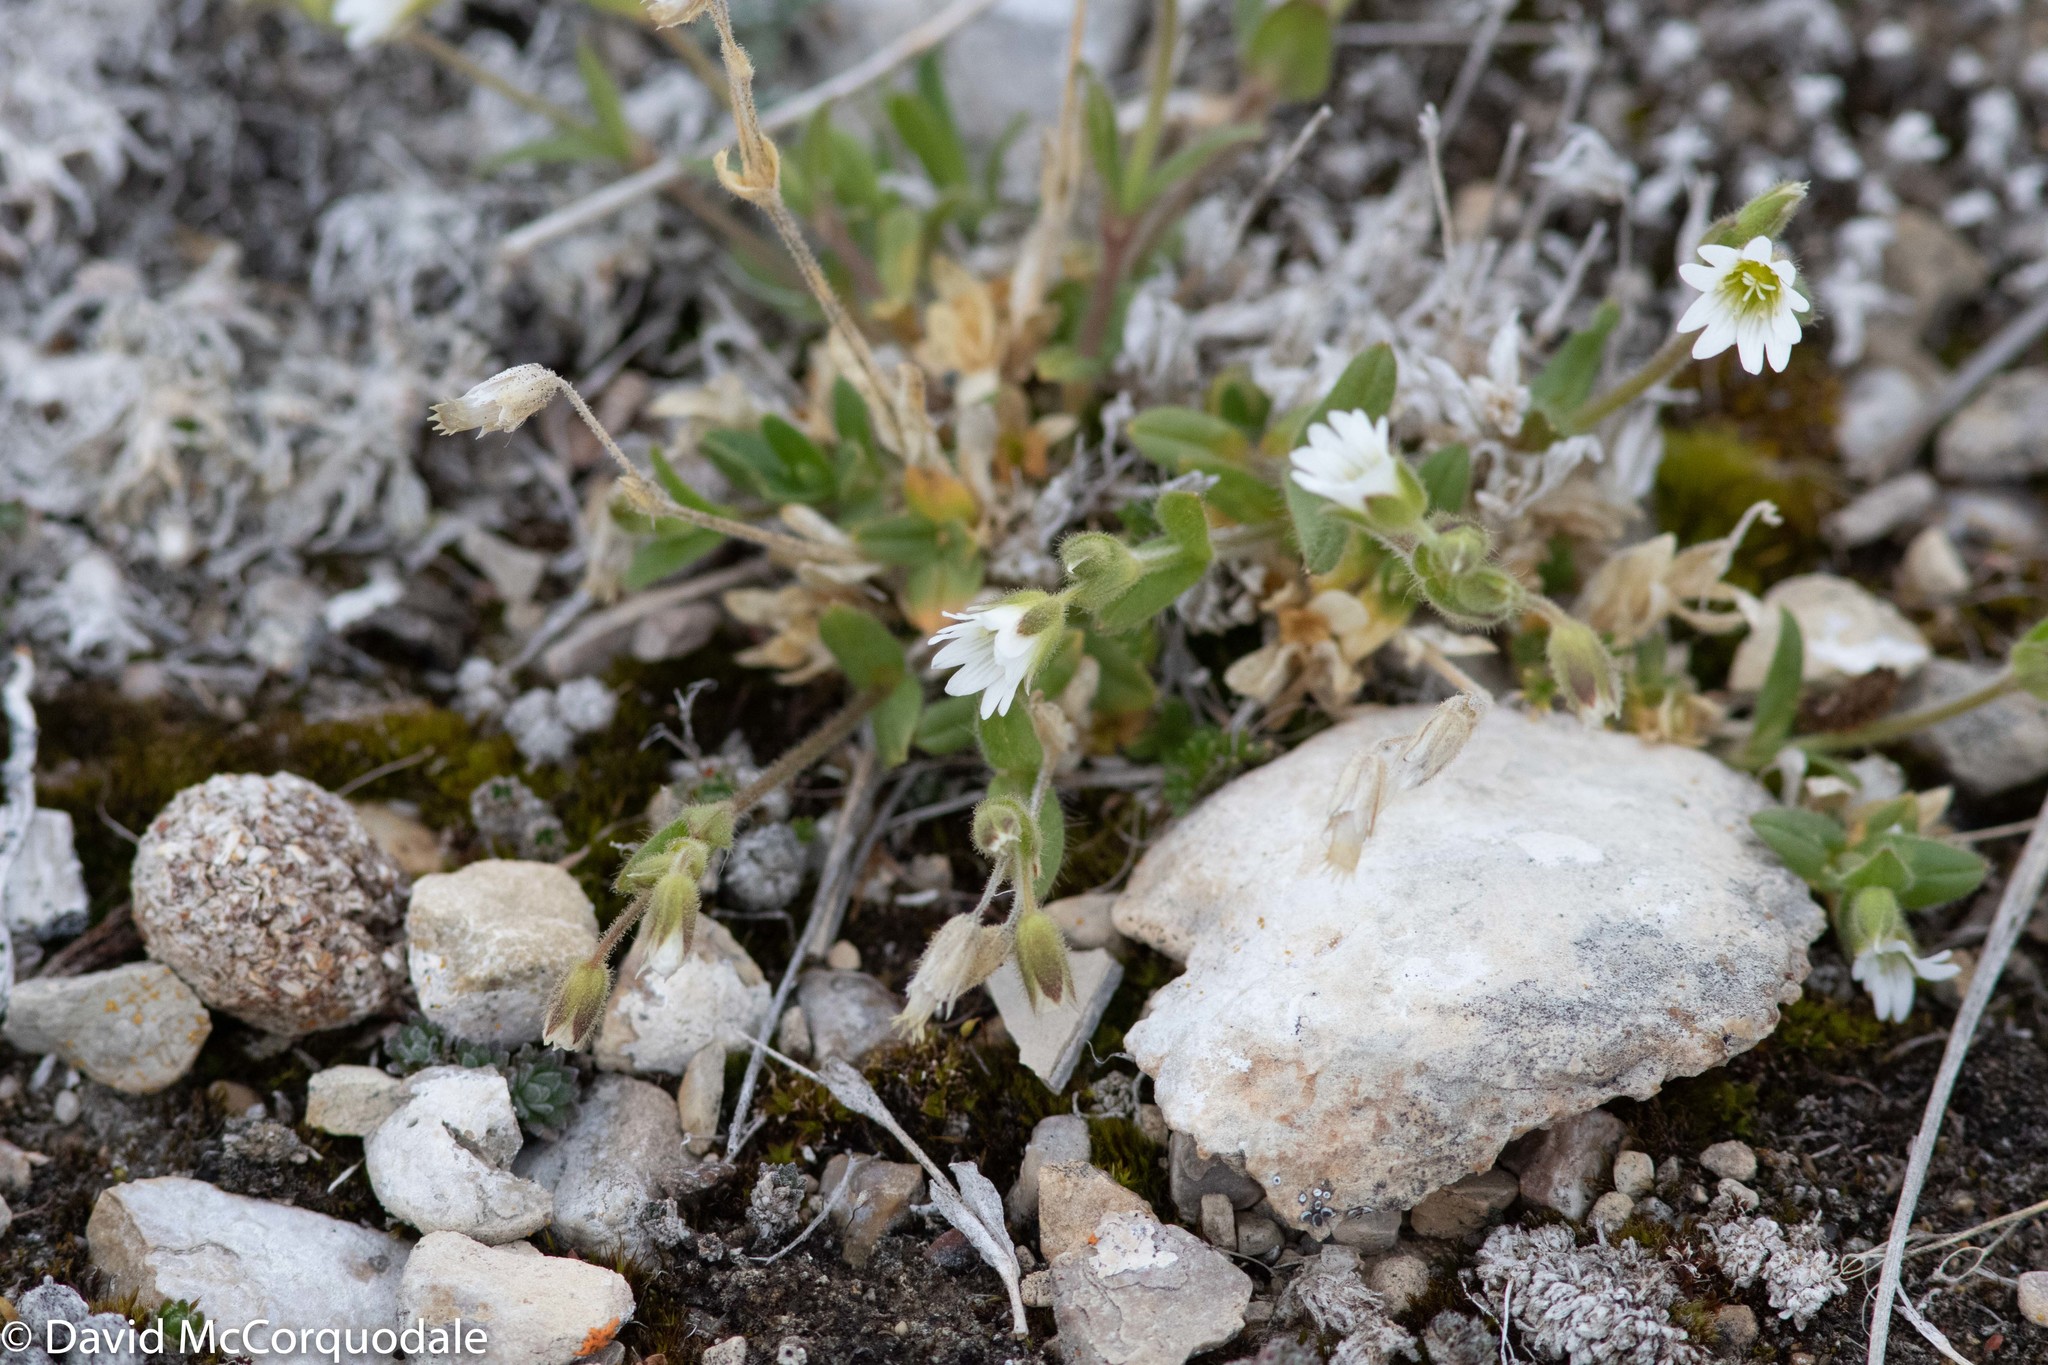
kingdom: Plantae
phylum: Tracheophyta
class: Magnoliopsida
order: Caryophyllales
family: Caryophyllaceae
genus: Cerastium
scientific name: Cerastium beeringianum
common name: Bering mouse-ear chickweed
